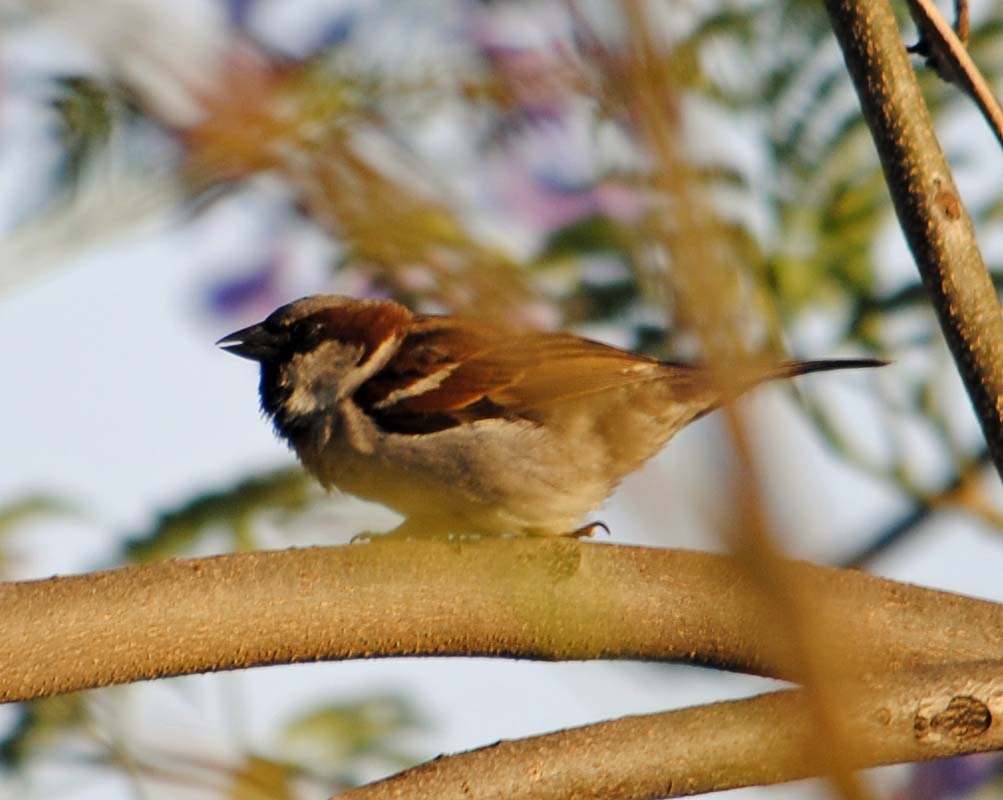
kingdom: Animalia
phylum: Chordata
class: Aves
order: Passeriformes
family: Passeridae
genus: Passer
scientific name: Passer domesticus
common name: House sparrow
